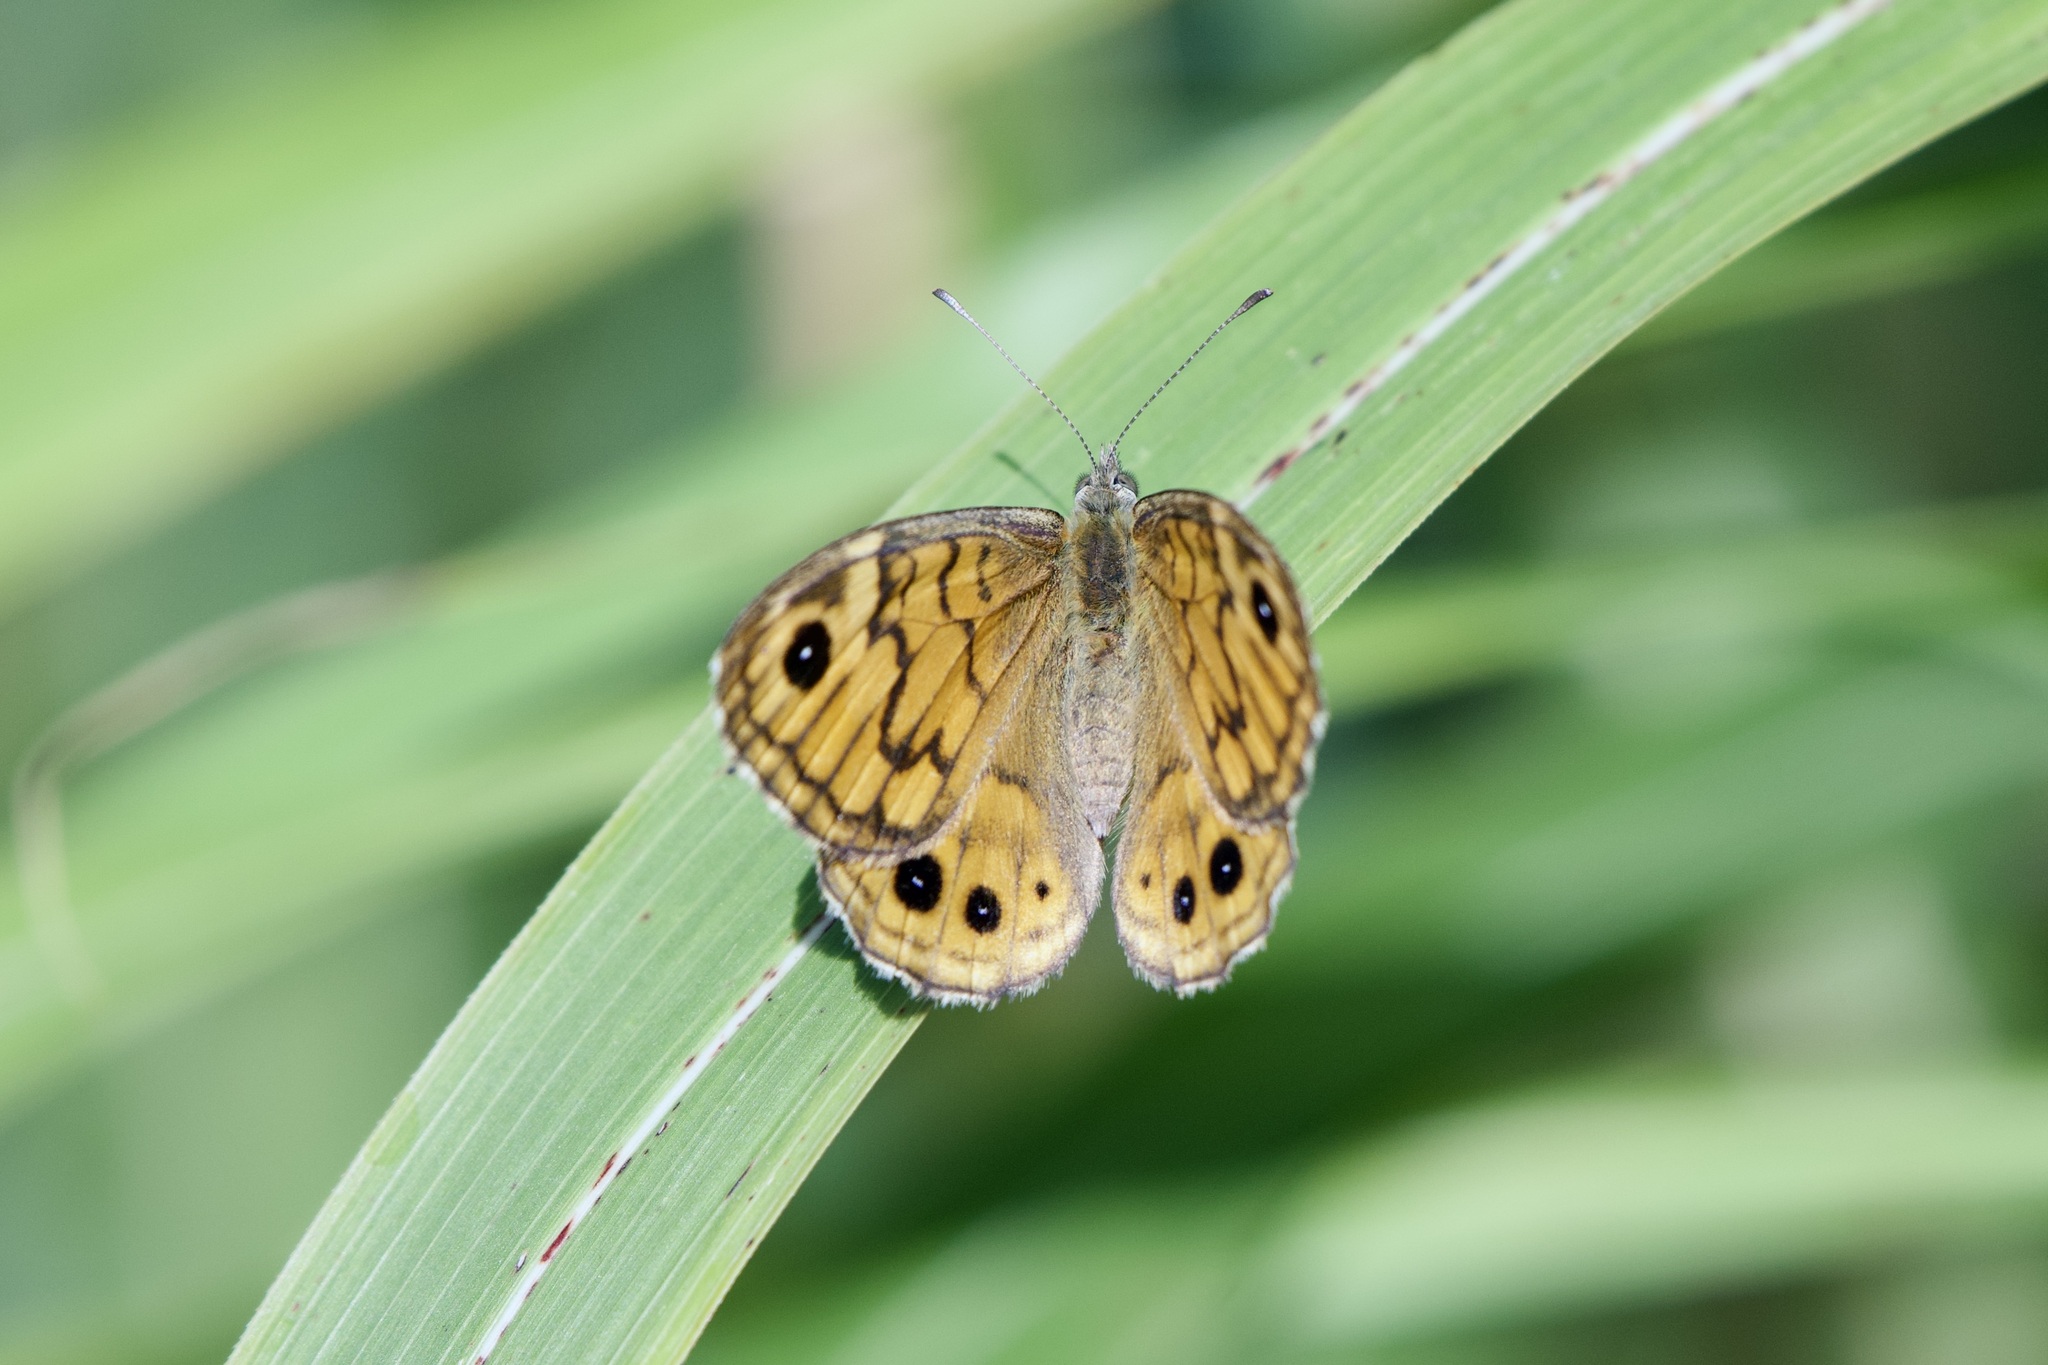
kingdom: Animalia
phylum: Arthropoda
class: Insecta
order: Lepidoptera
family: Nymphalidae
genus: Pararge
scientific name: Pararge Lasiommata megera
